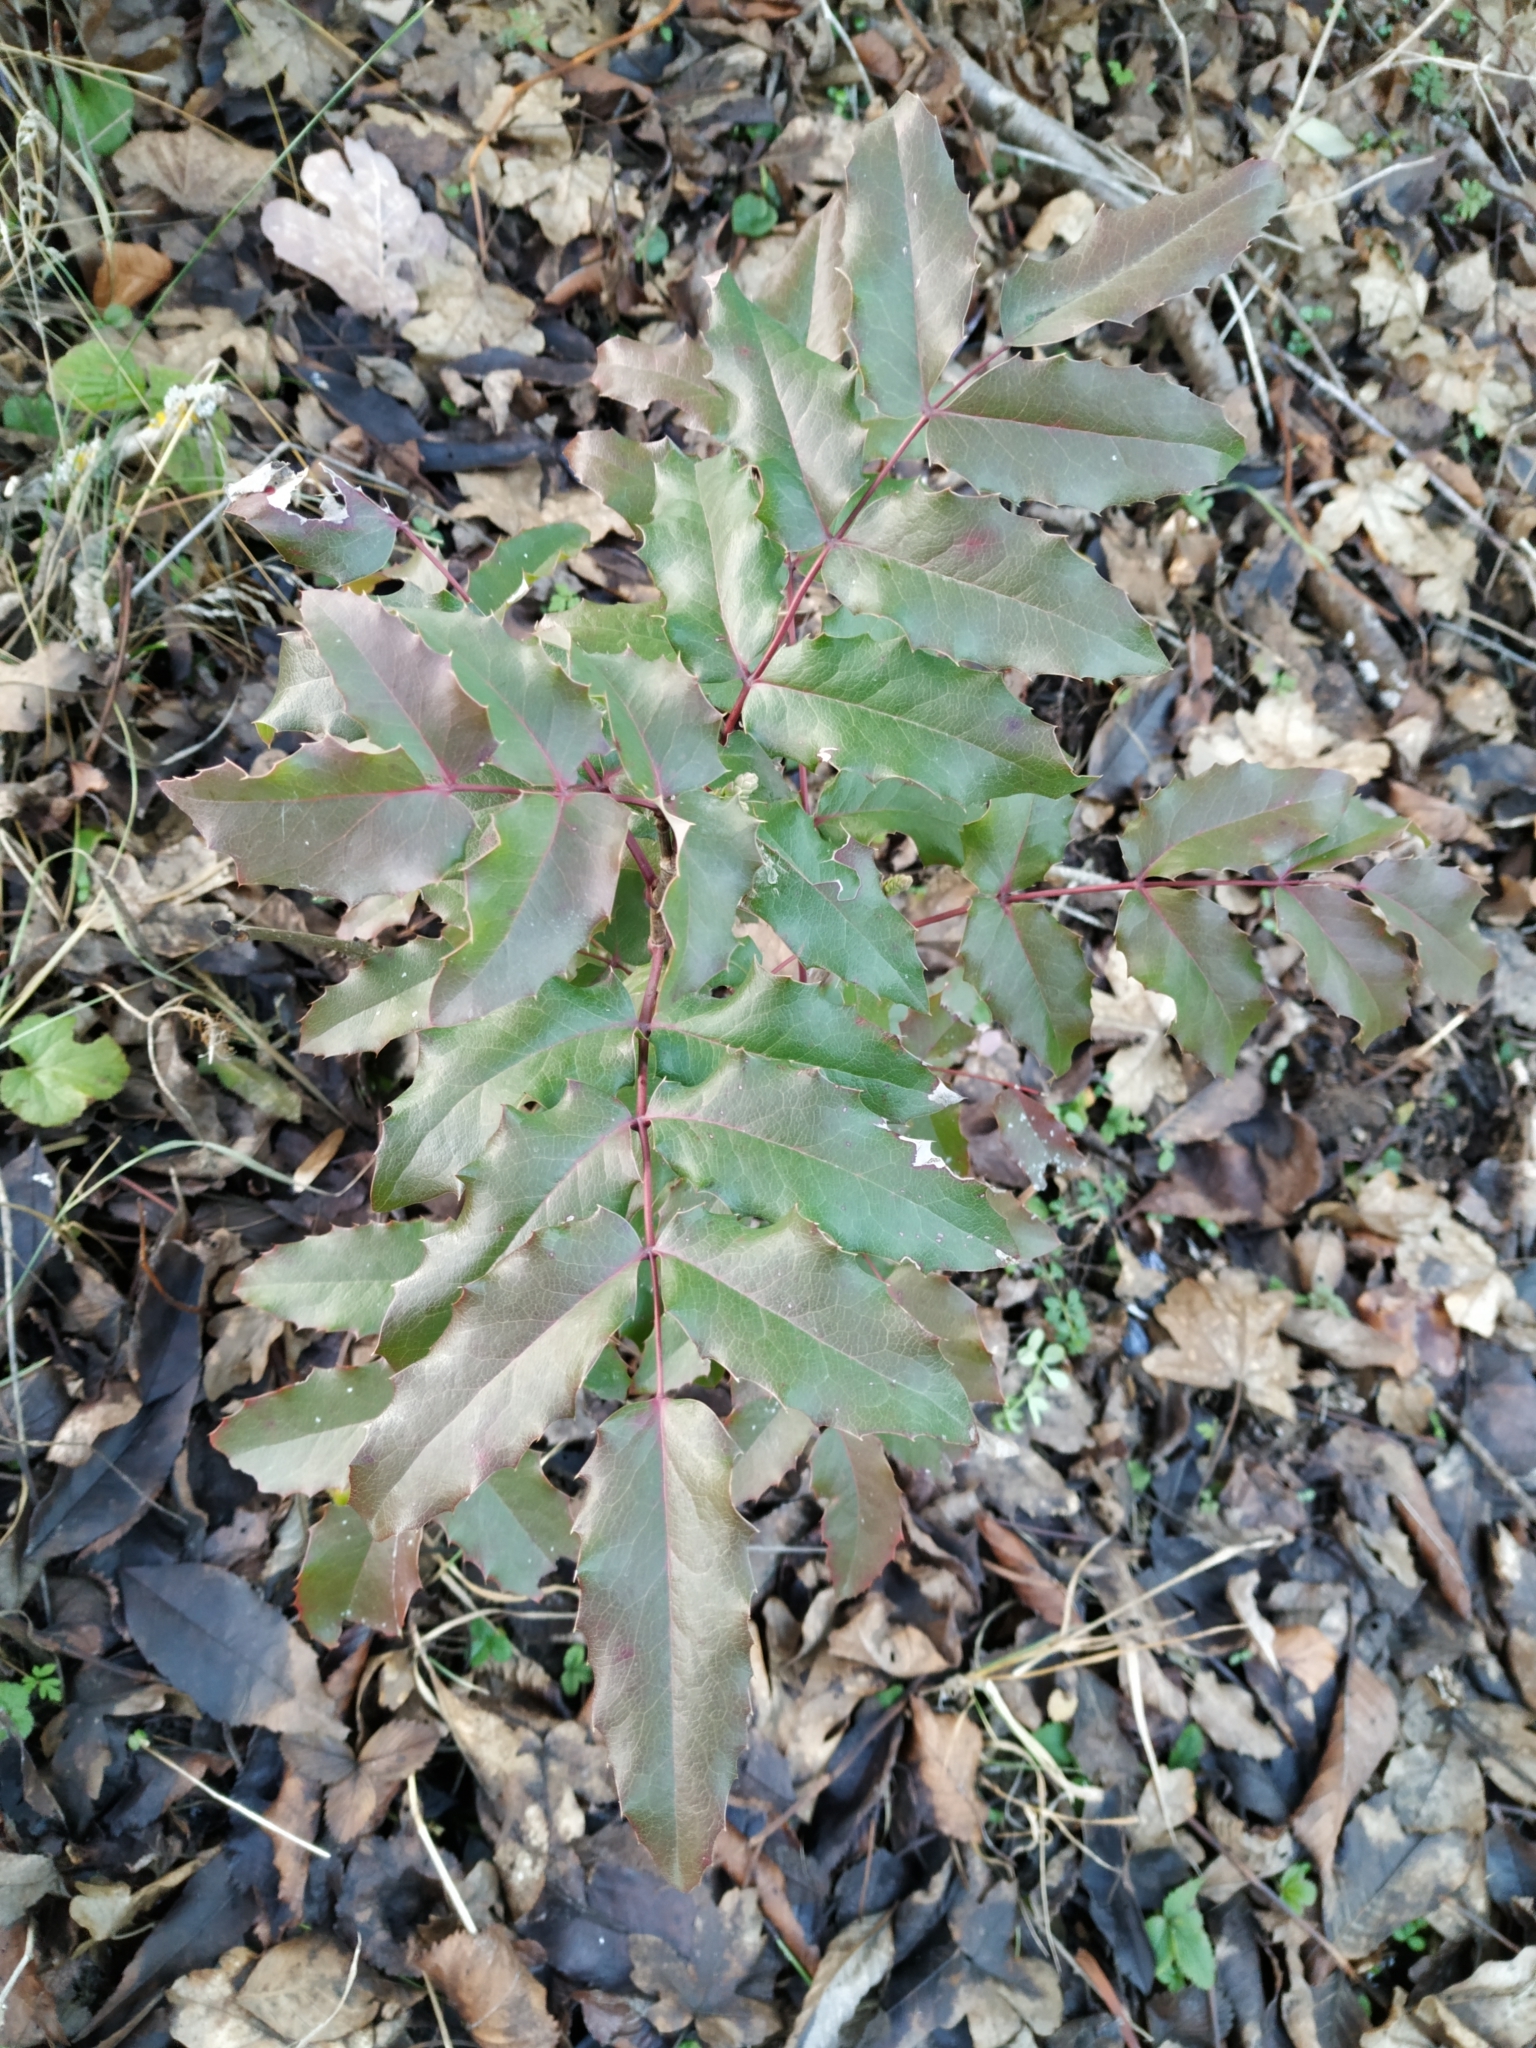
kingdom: Plantae
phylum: Tracheophyta
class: Magnoliopsida
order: Ranunculales
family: Berberidaceae
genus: Mahonia
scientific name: Mahonia aquifolium
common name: Oregon-grape
